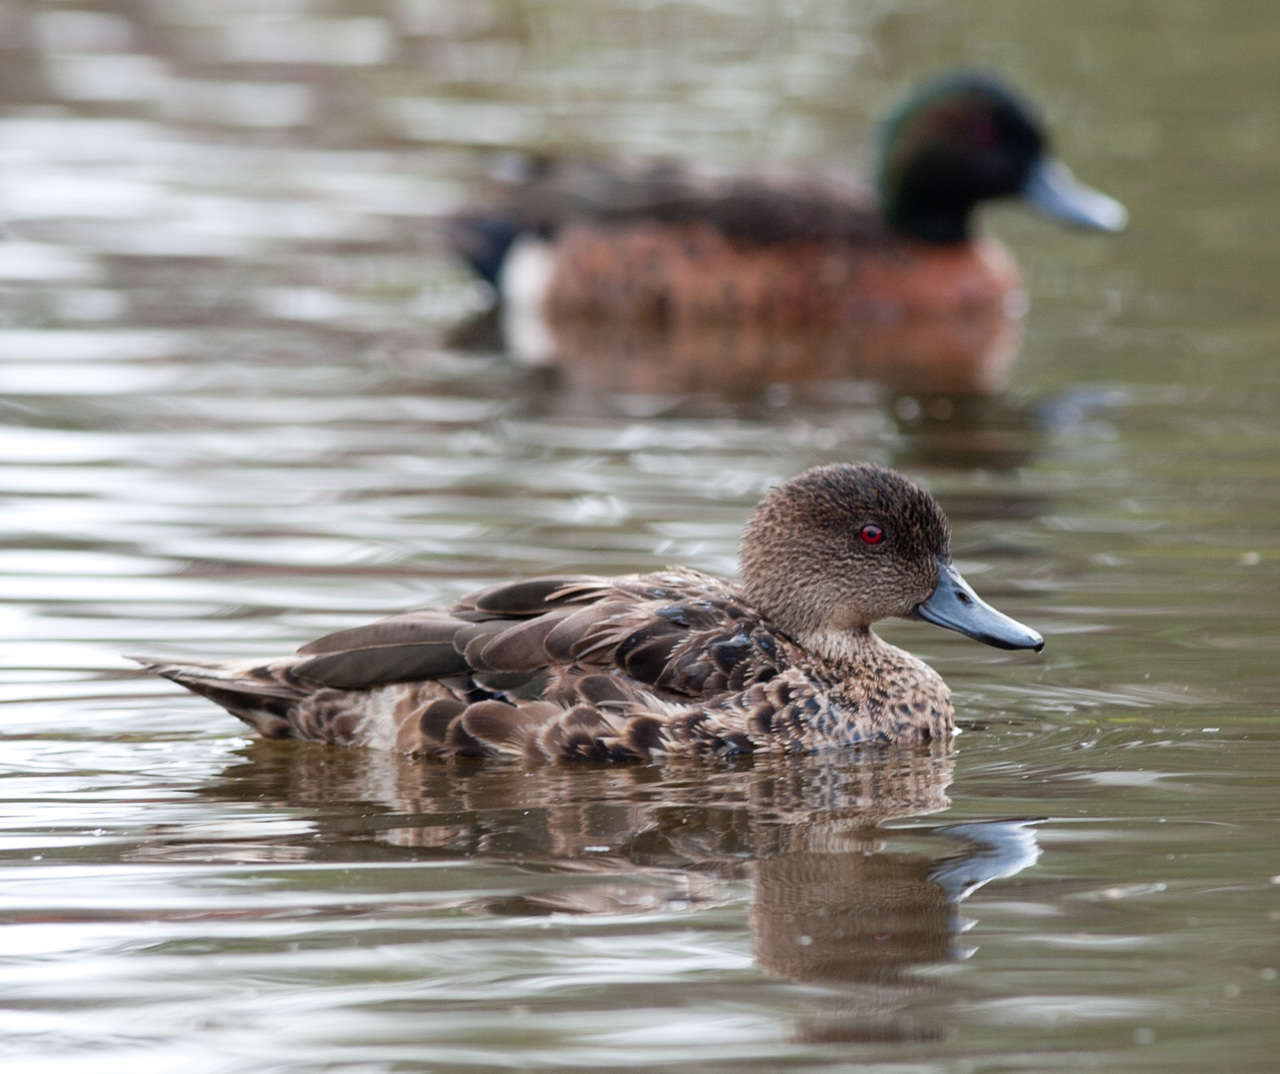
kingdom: Animalia
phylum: Chordata
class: Aves
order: Anseriformes
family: Anatidae
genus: Anas
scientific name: Anas castanea
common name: Chestnut teal
